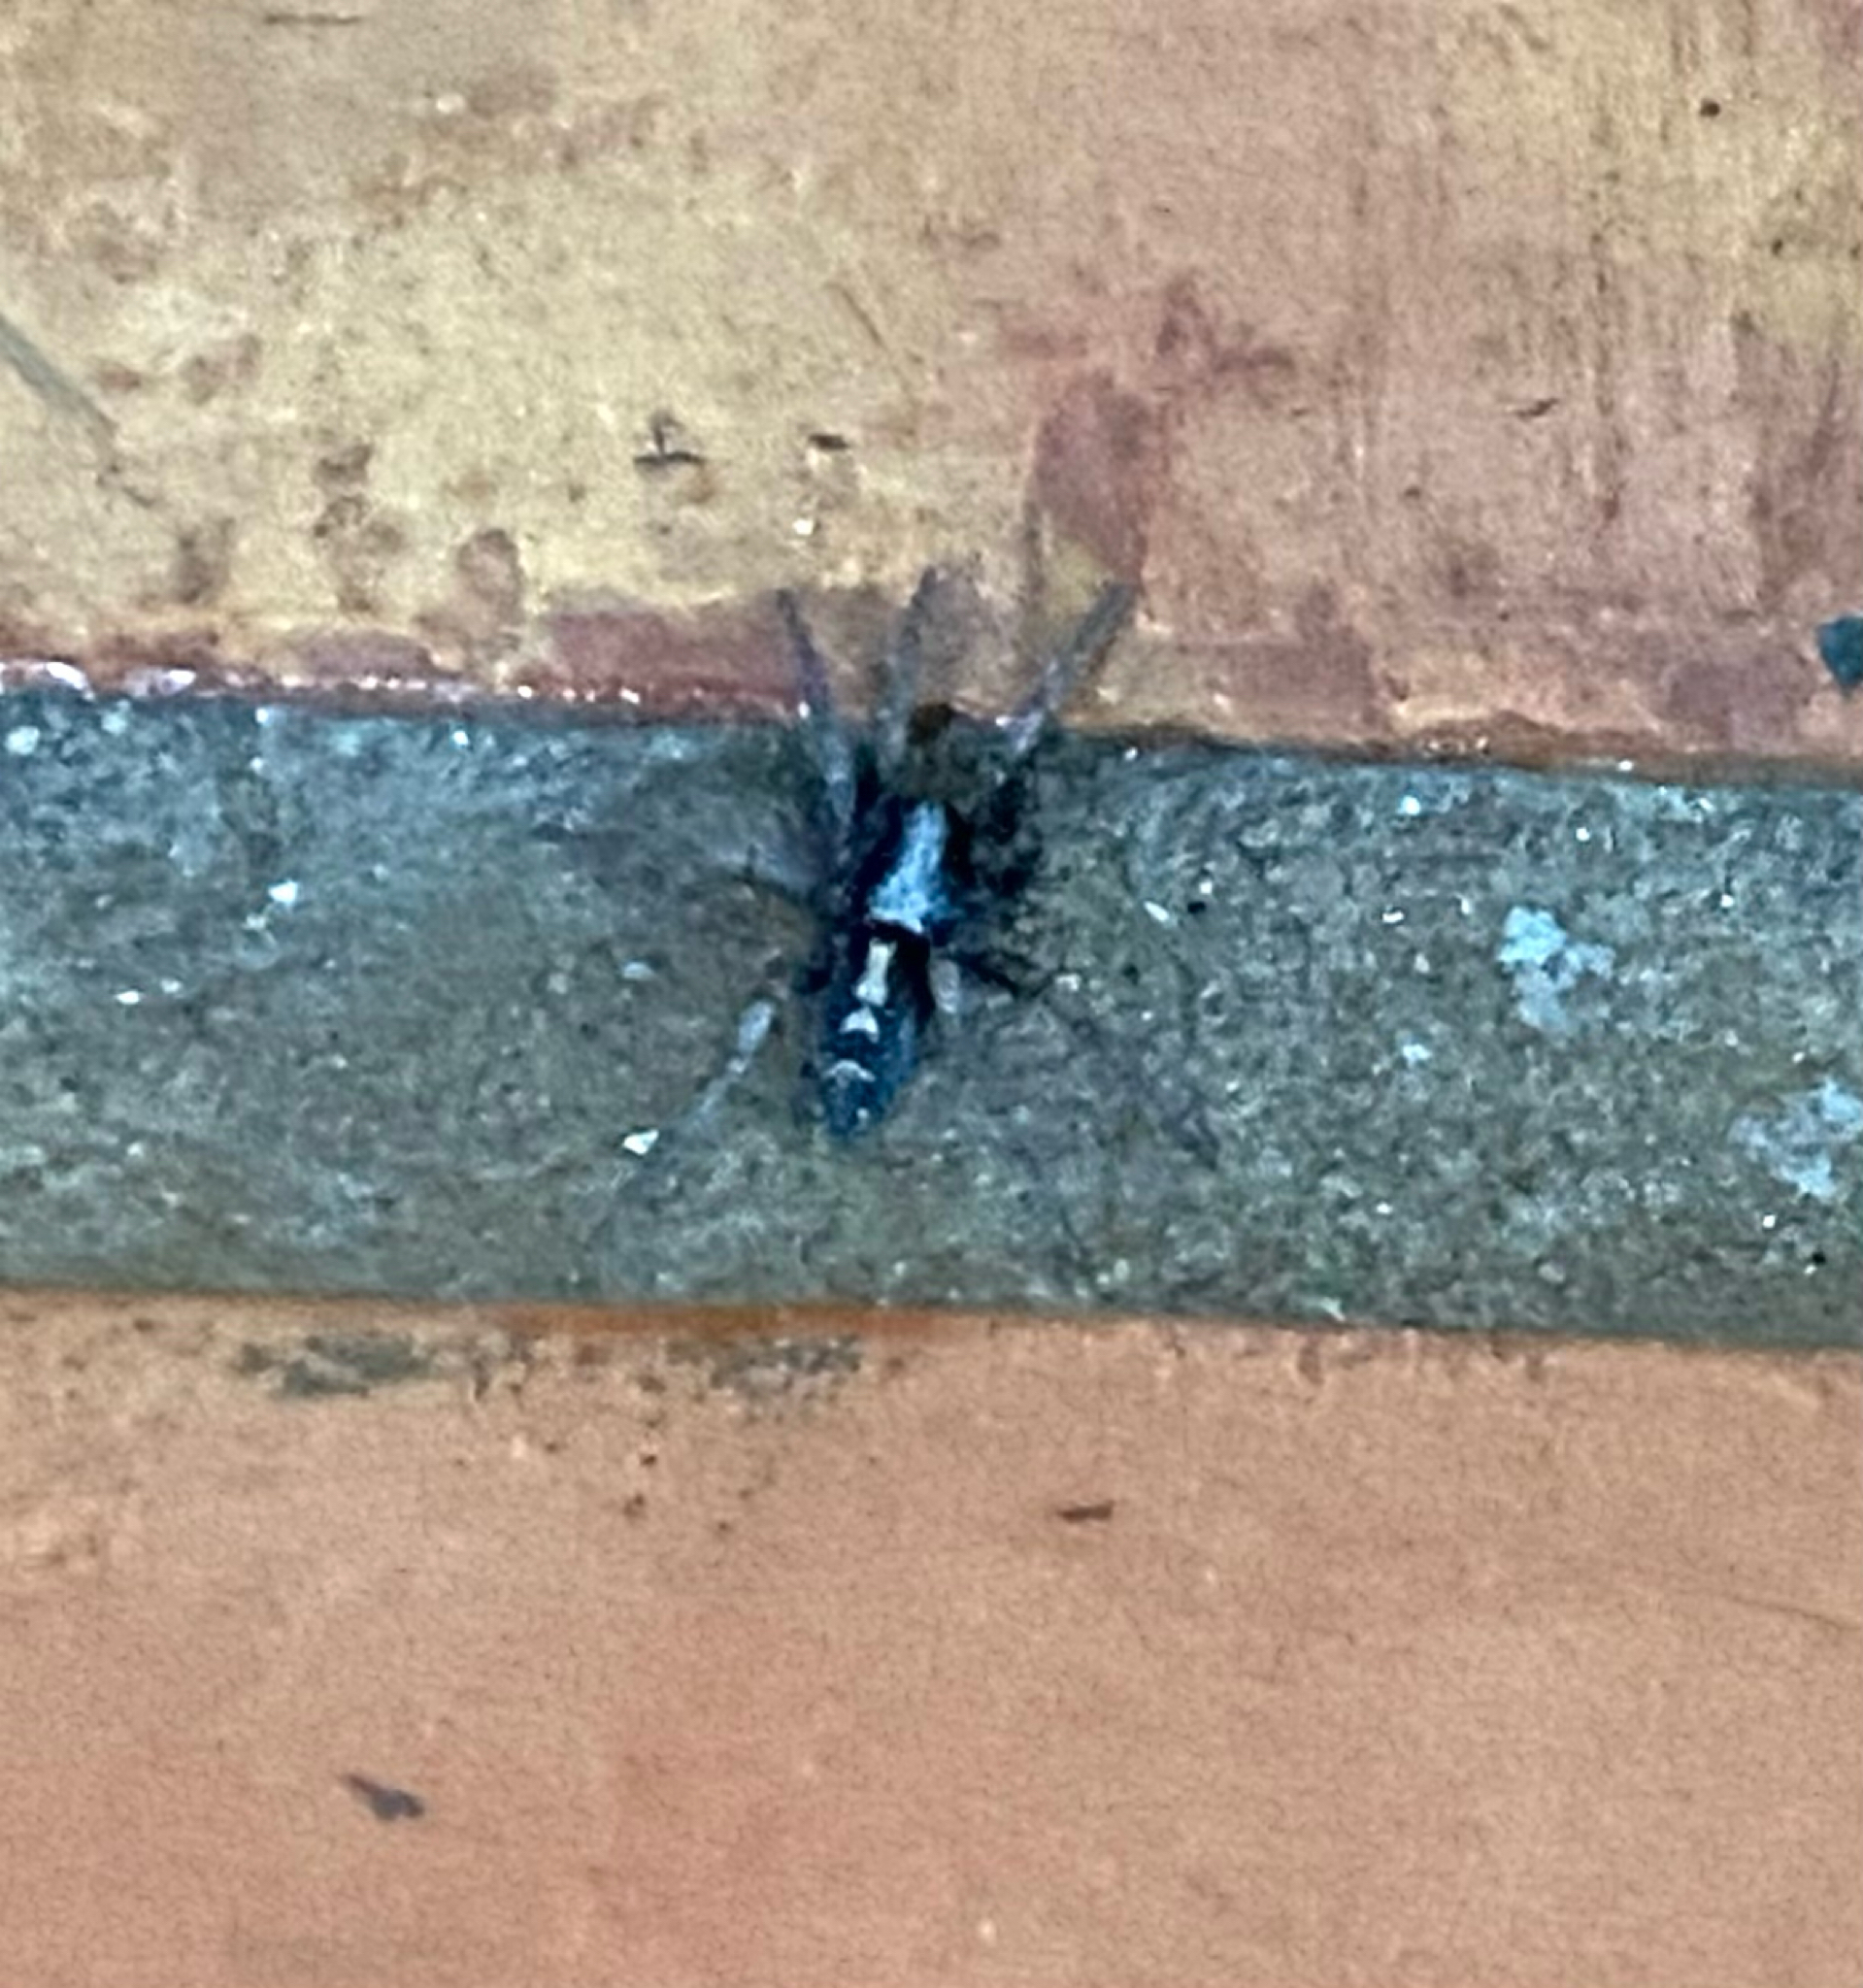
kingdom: Animalia
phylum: Arthropoda
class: Arachnida
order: Araneae
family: Gnaphosidae
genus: Herpyllus
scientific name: Herpyllus ecclesiasticus
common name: Eastern parson spider
